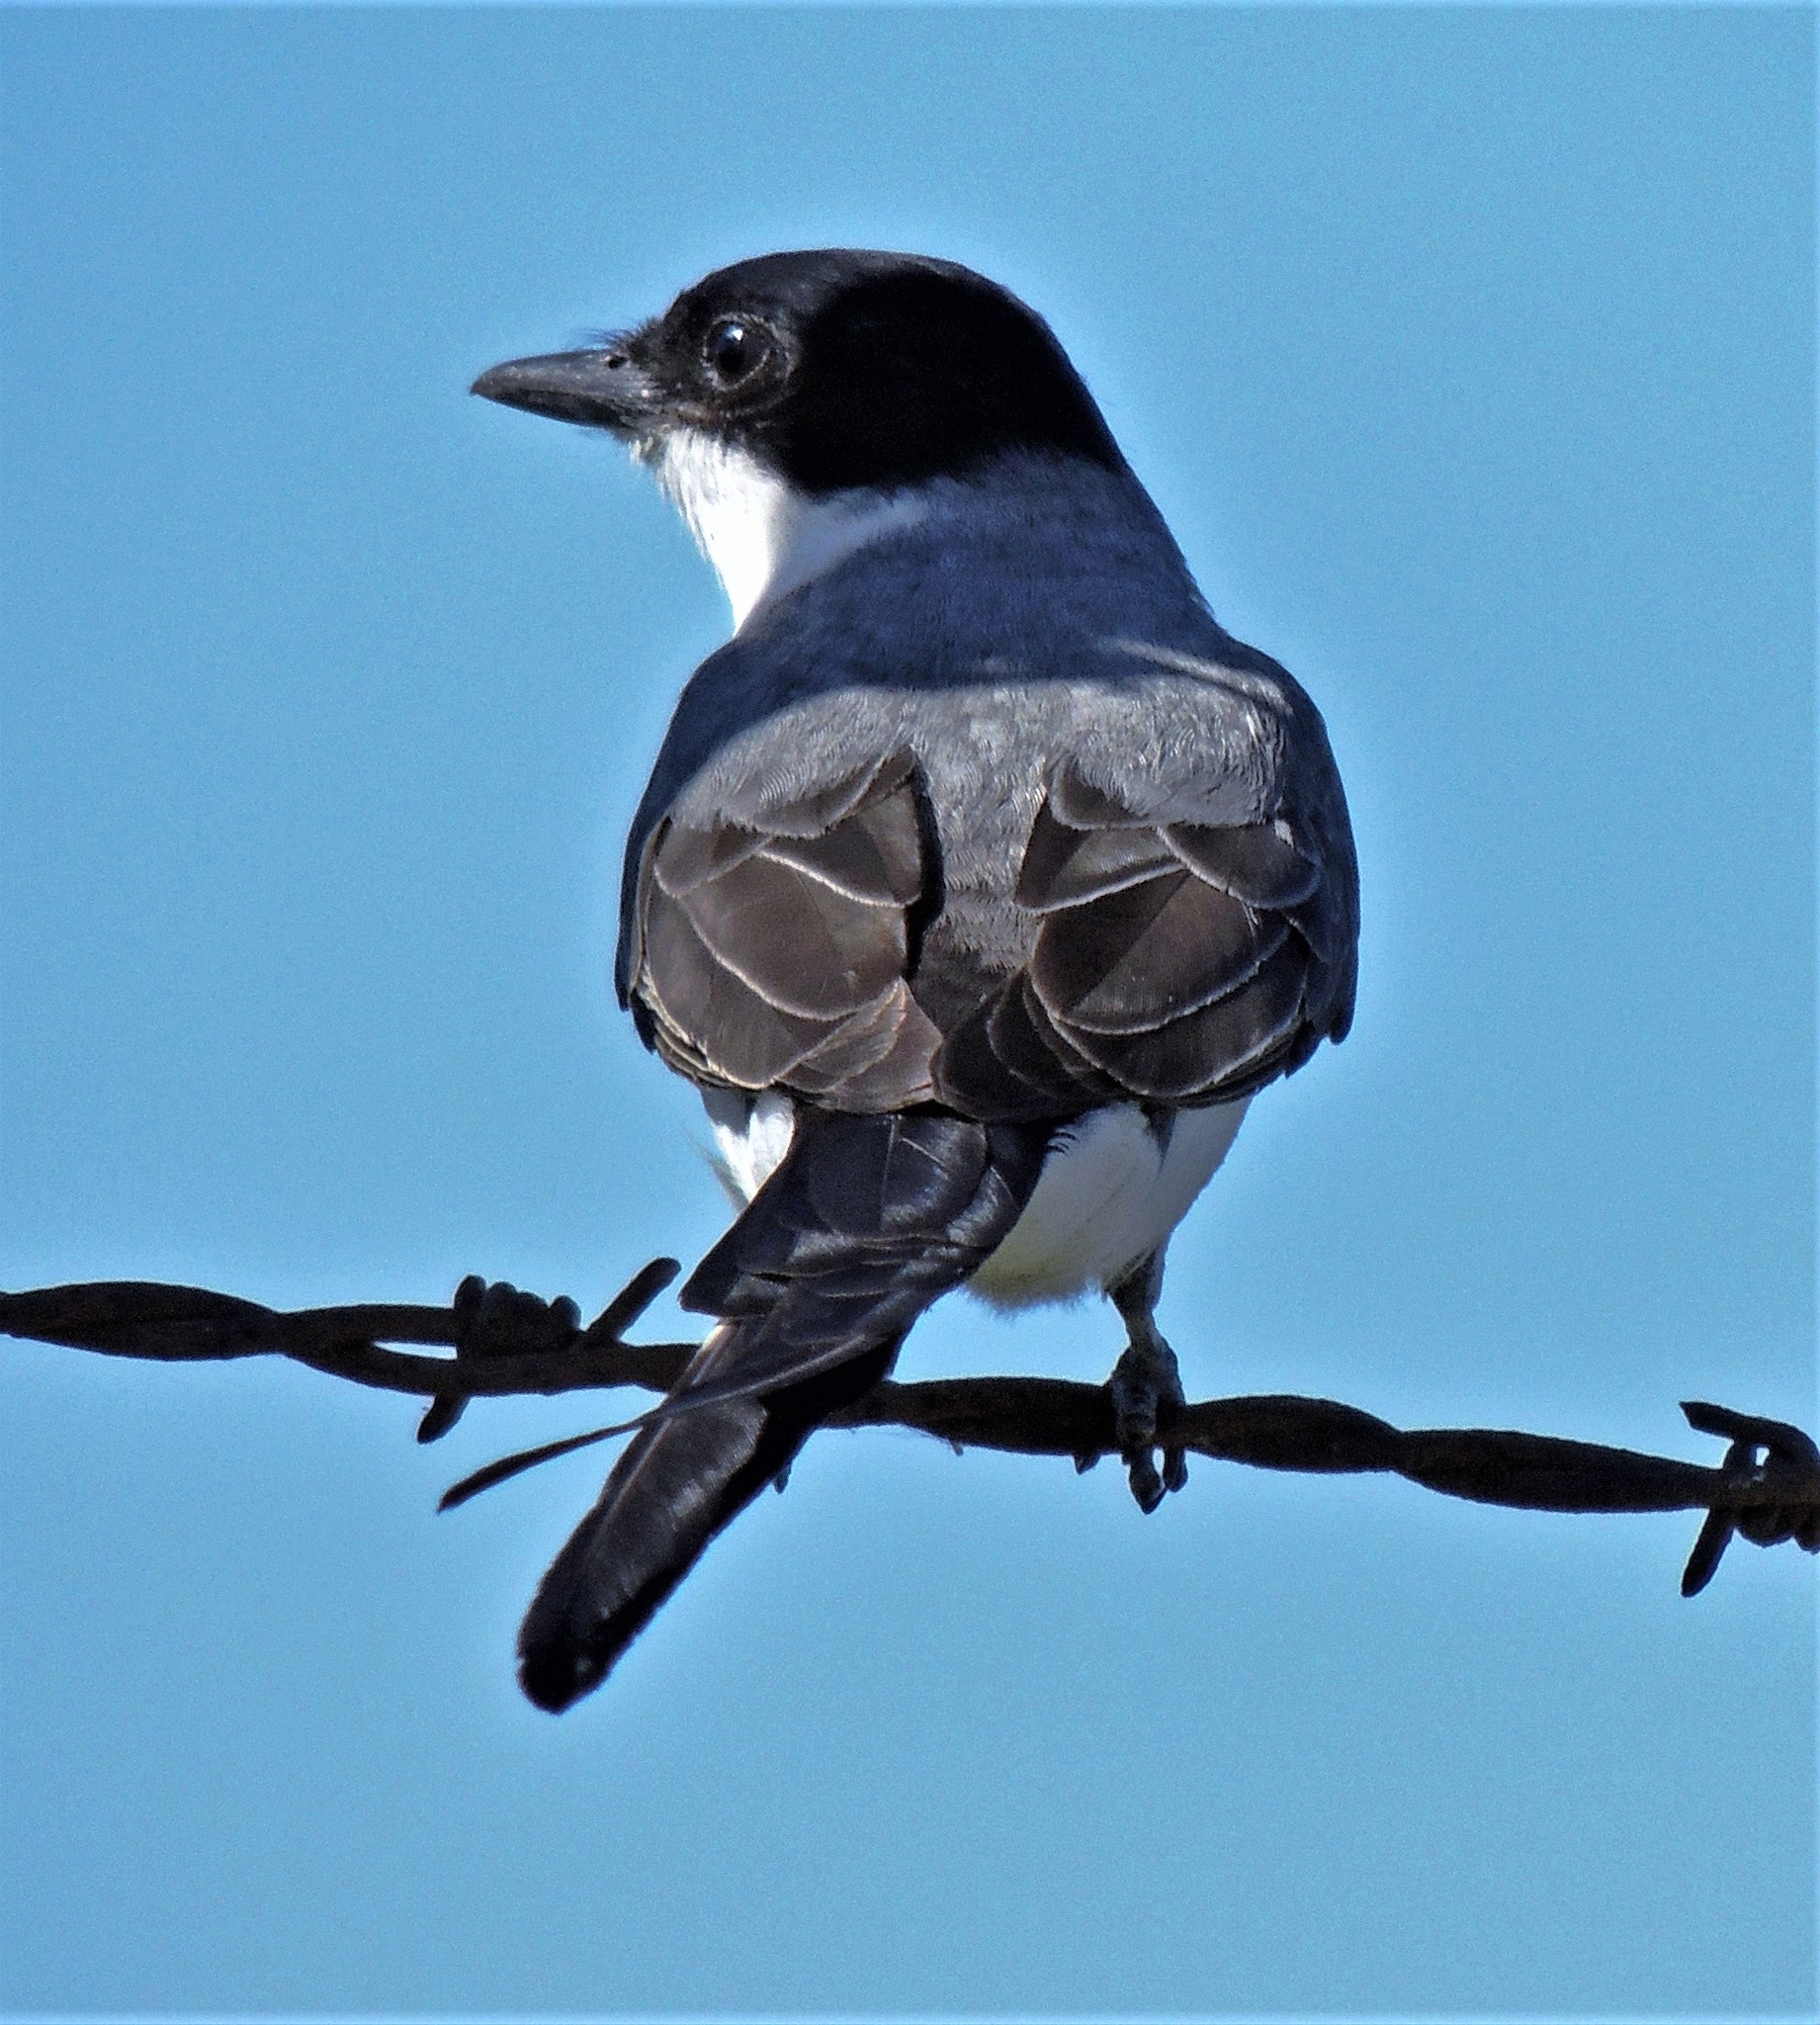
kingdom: Animalia
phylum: Chordata
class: Aves
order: Passeriformes
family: Tyrannidae
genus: Tyrannus
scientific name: Tyrannus savana
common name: Fork-tailed flycatcher
